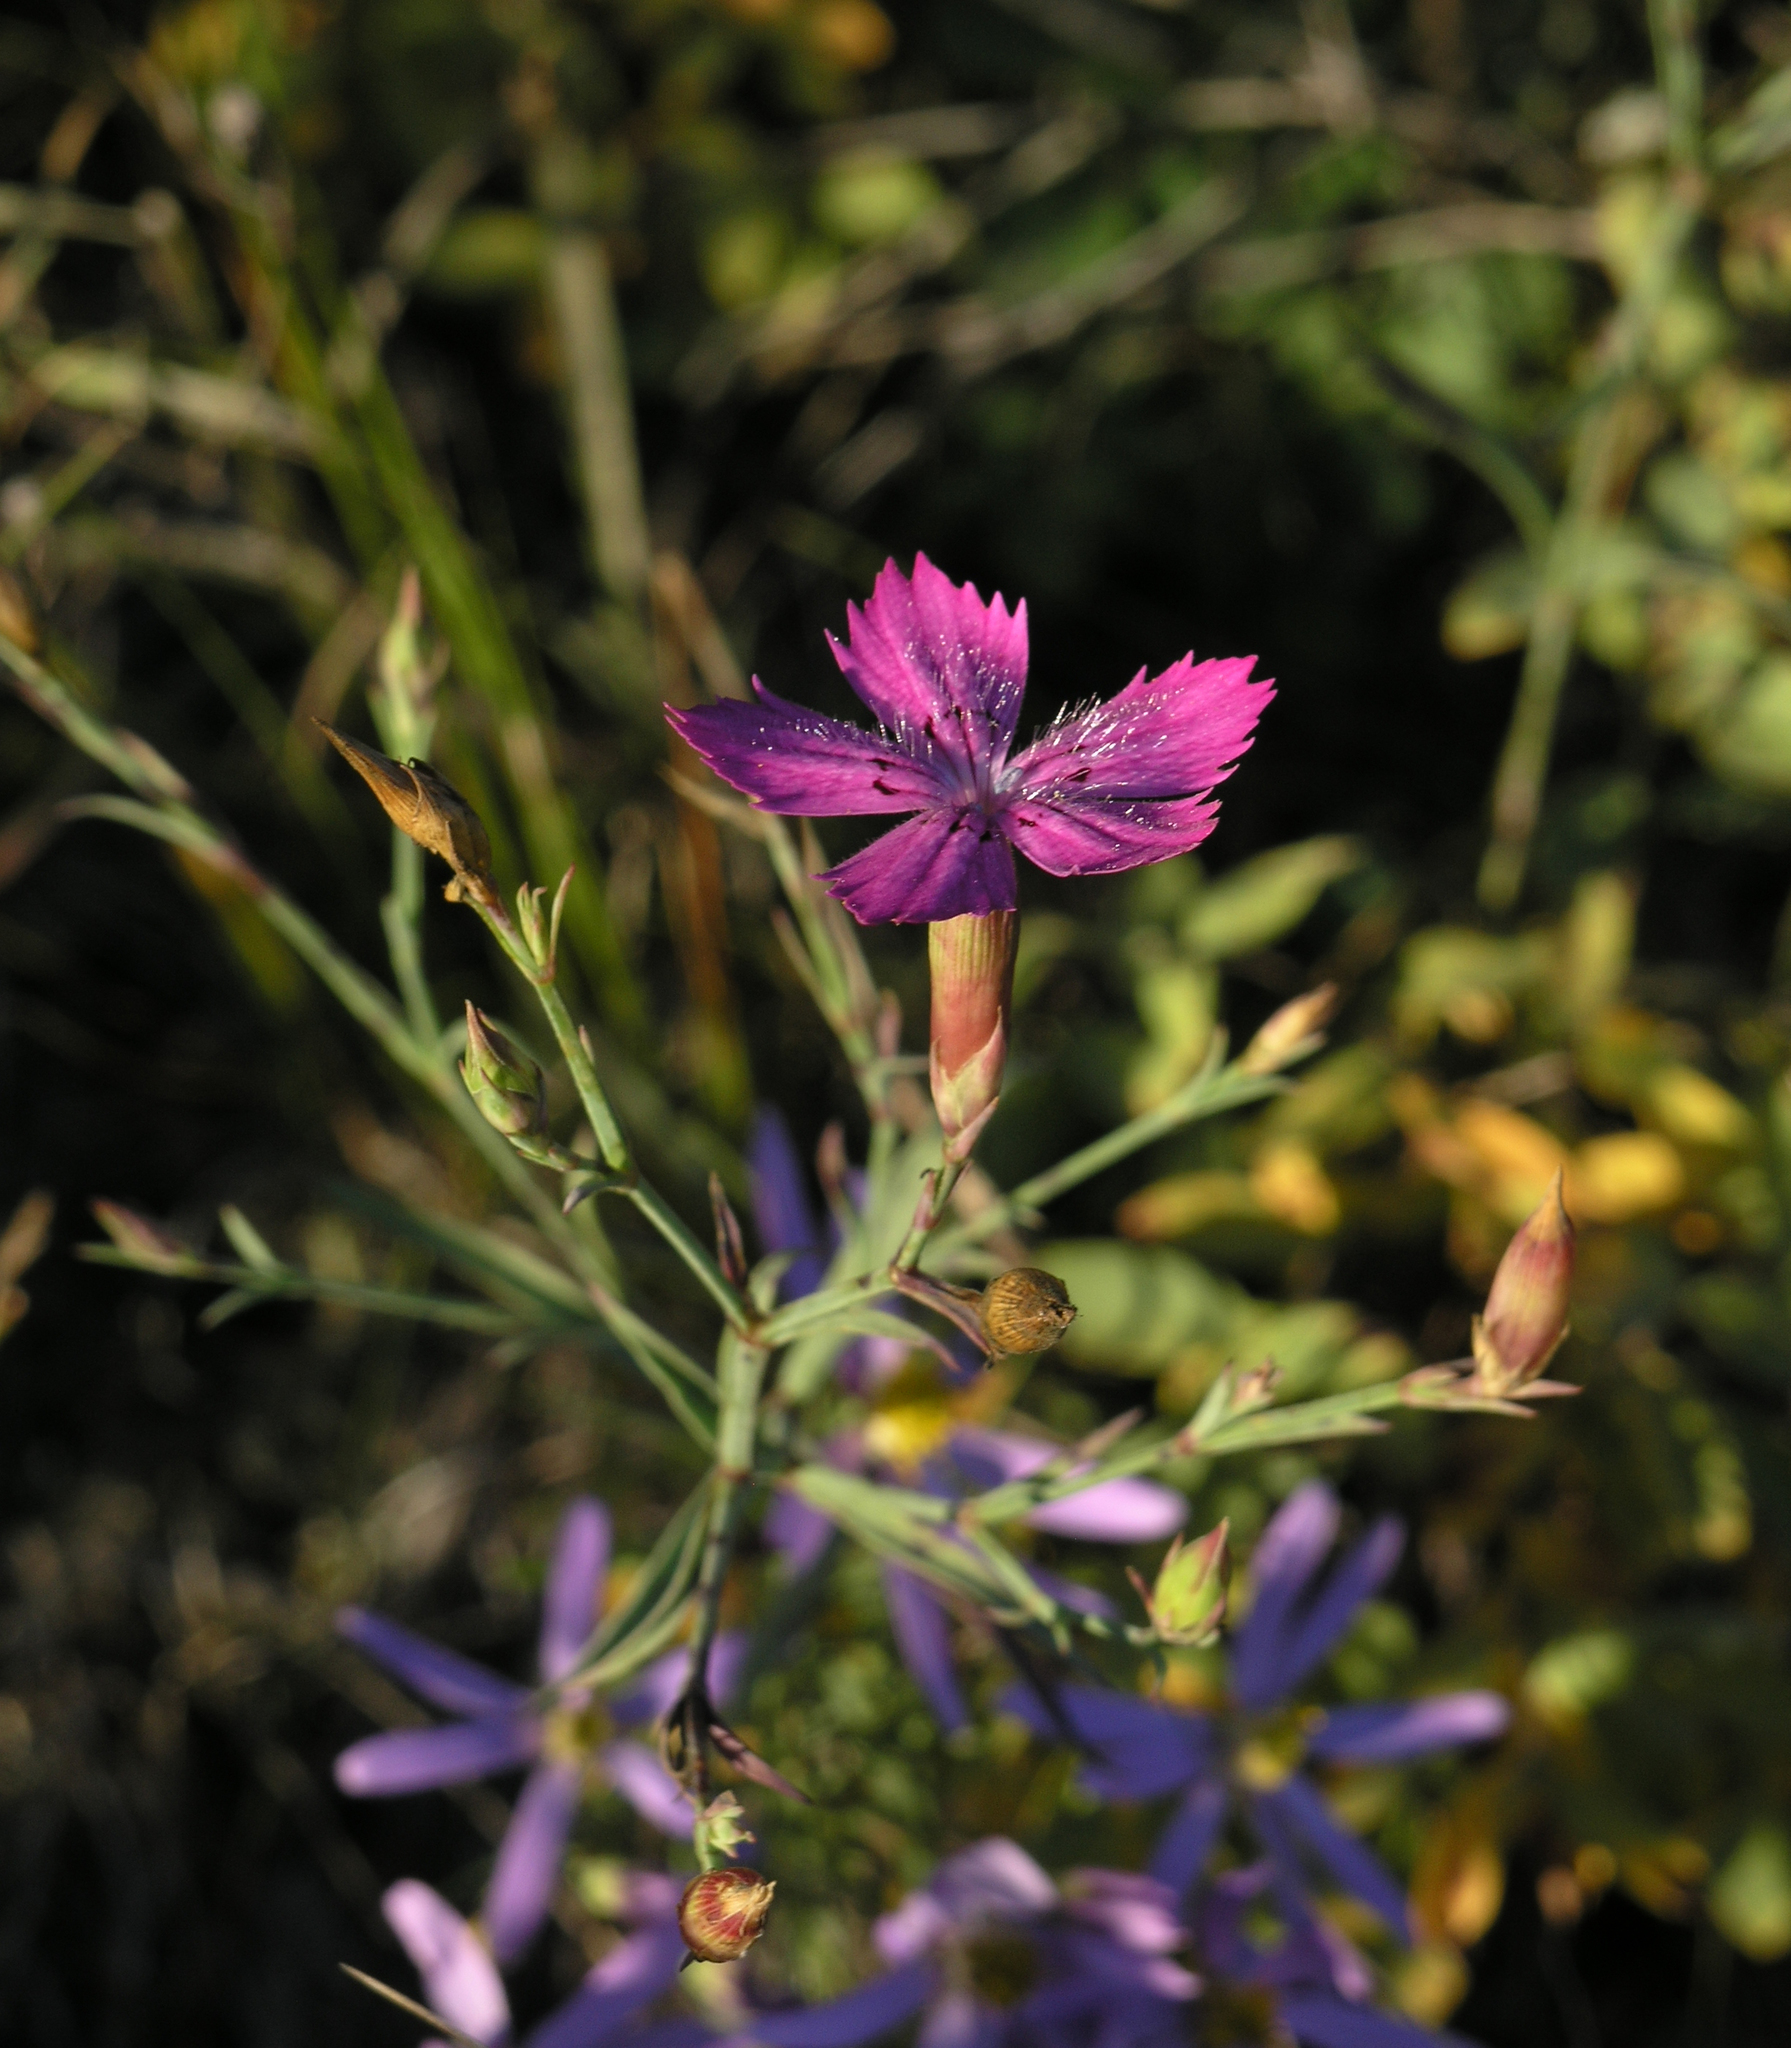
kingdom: Plantae
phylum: Tracheophyta
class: Magnoliopsida
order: Caryophyllales
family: Caryophyllaceae
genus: Dianthus
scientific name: Dianthus chinensis
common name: Rainbow pink
